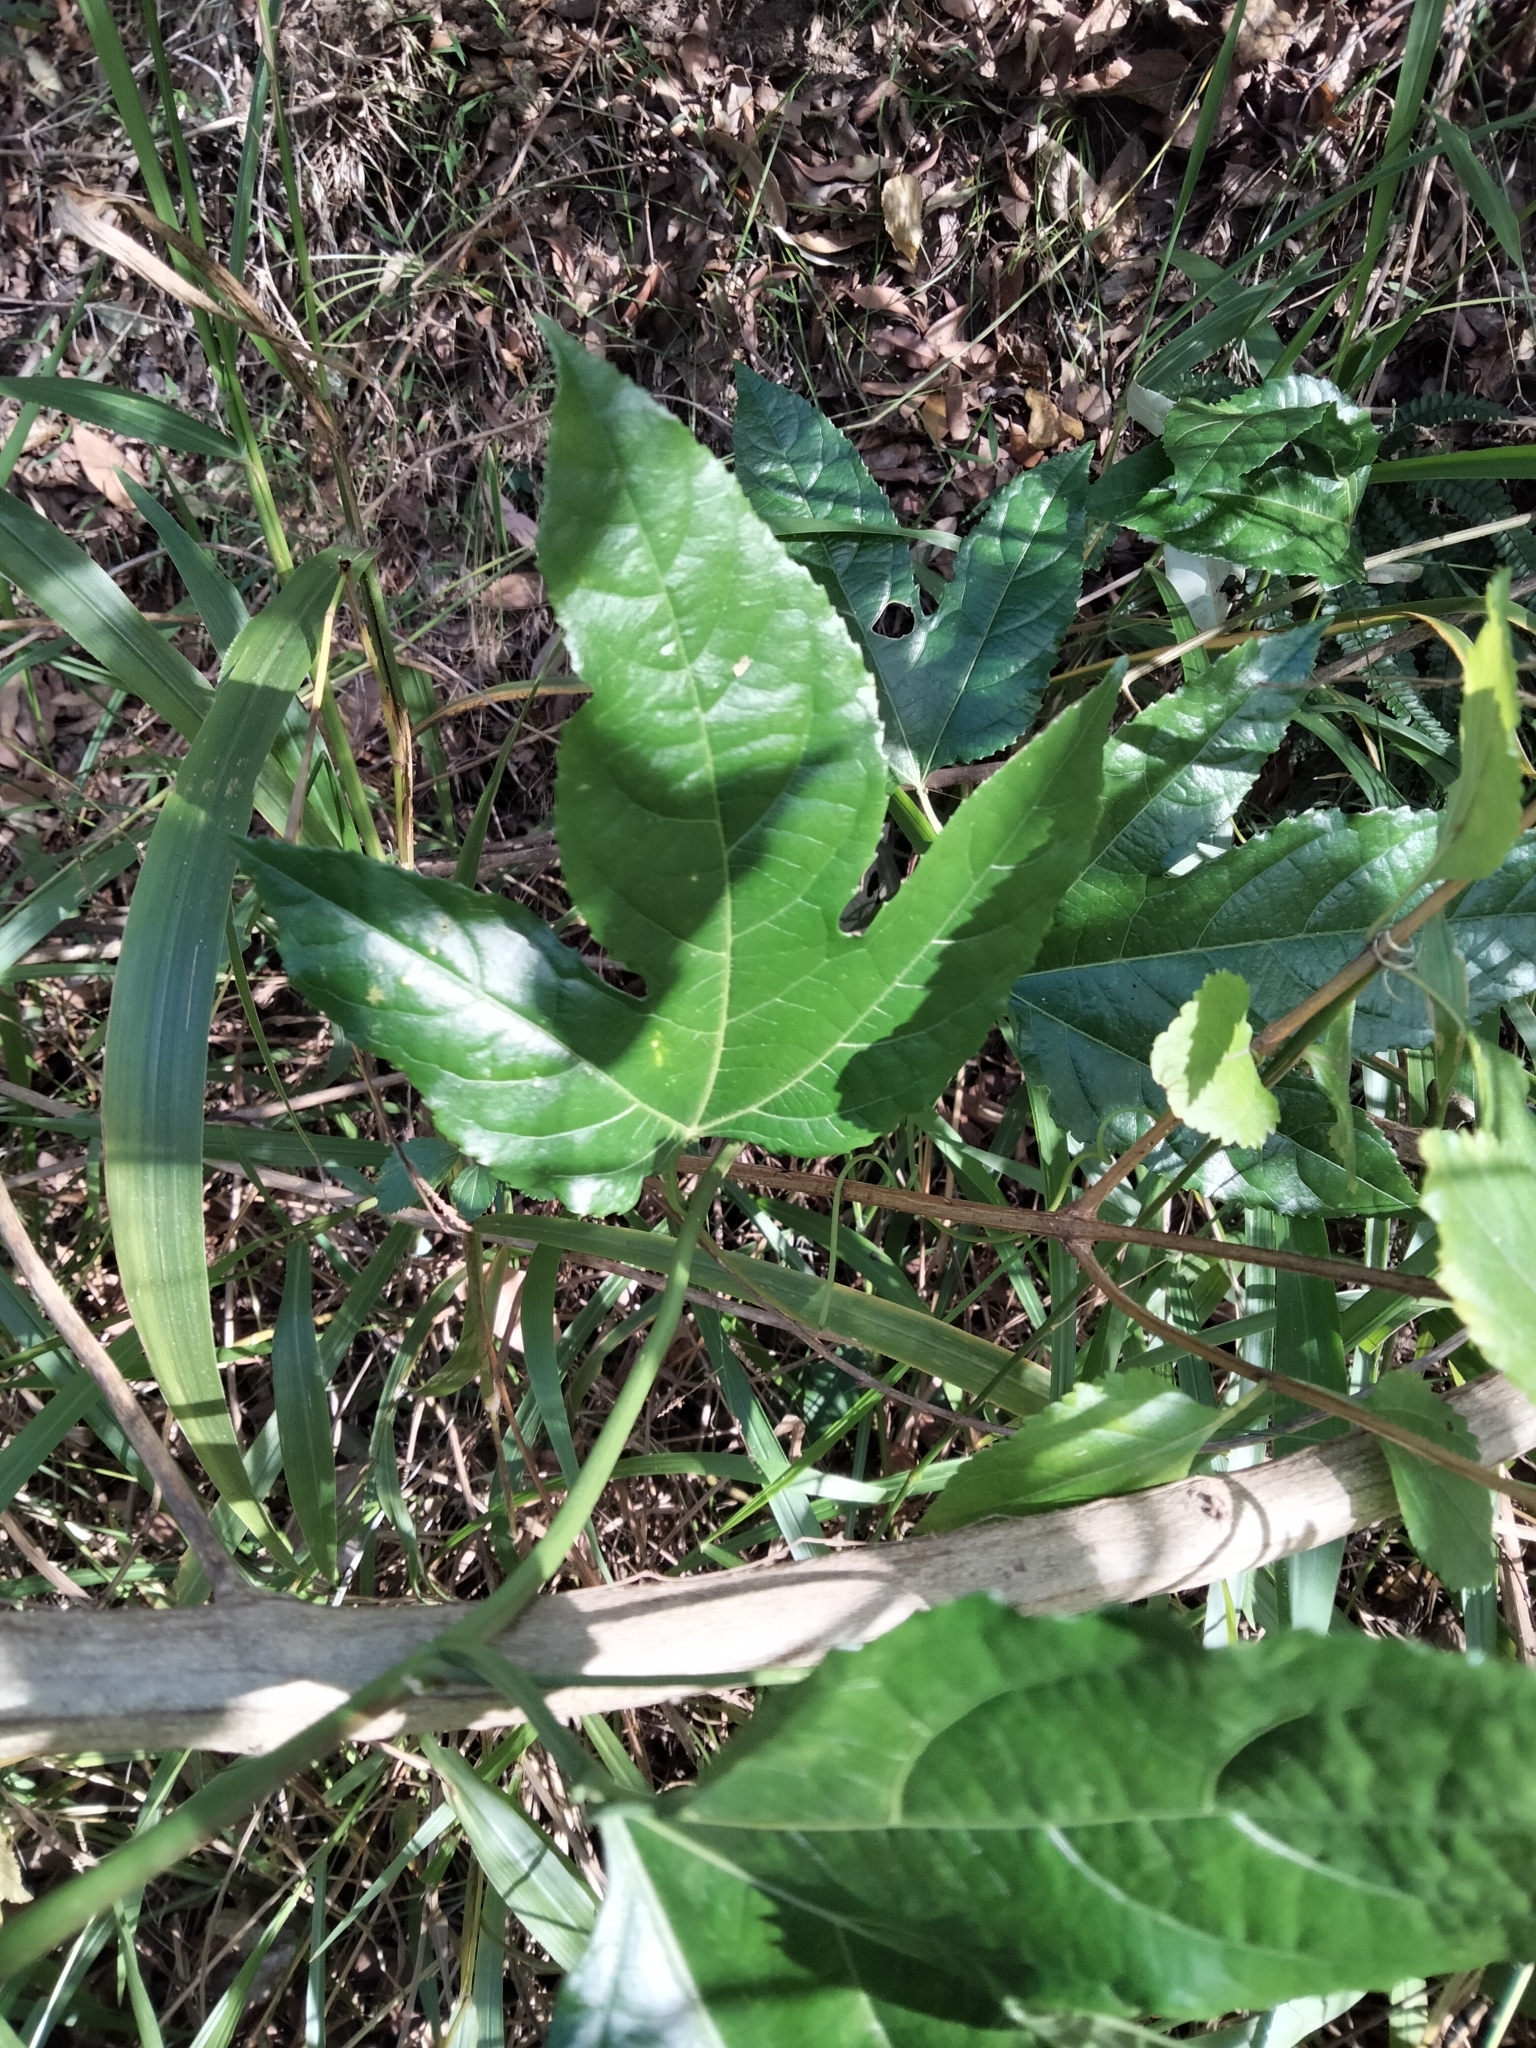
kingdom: Plantae
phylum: Tracheophyta
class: Magnoliopsida
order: Malpighiales
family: Passifloraceae
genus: Passiflora
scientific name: Passiflora edulis
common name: Purple granadilla
